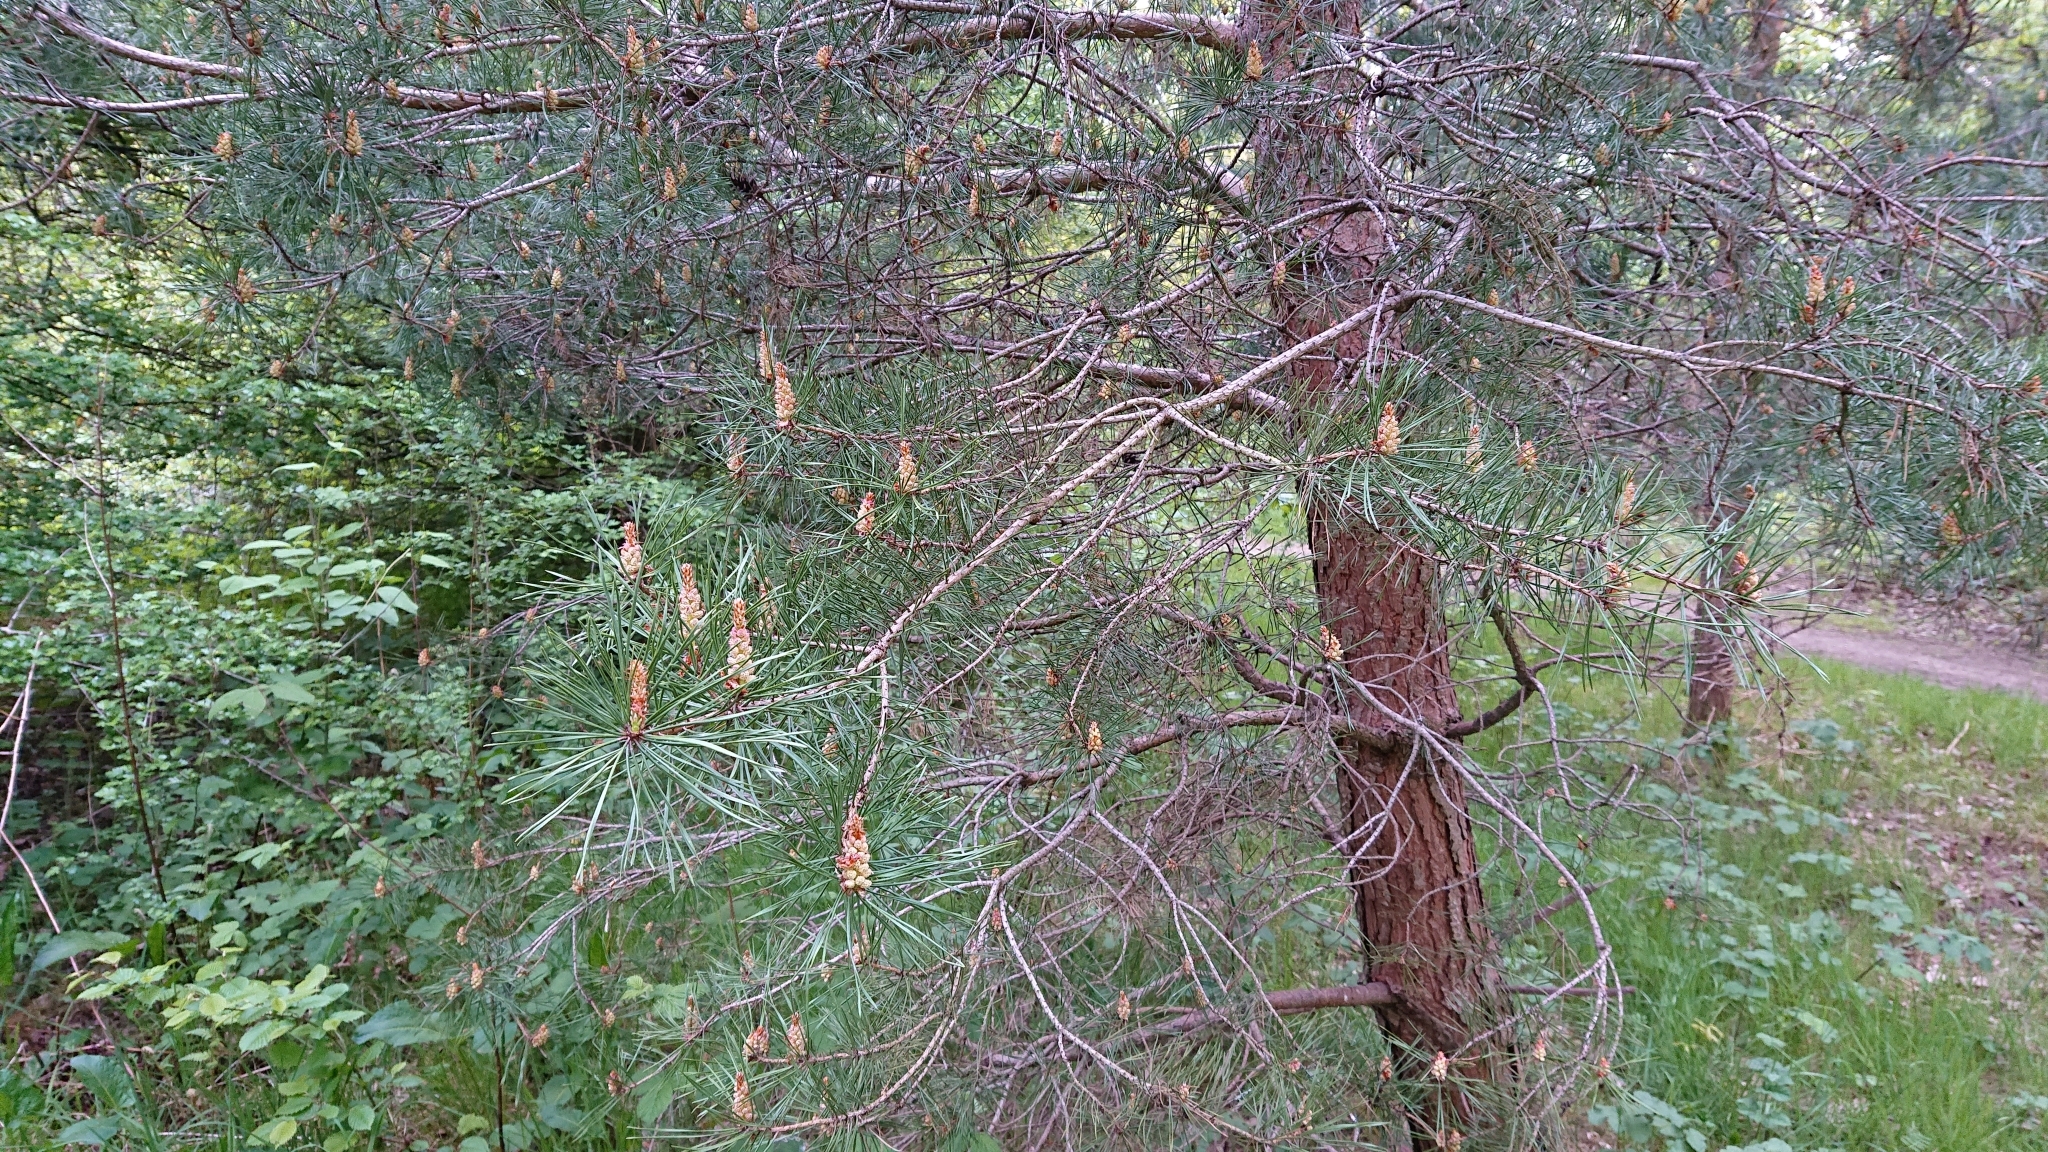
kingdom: Plantae
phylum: Tracheophyta
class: Pinopsida
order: Pinales
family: Pinaceae
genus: Pinus
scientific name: Pinus sylvestris
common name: Scots pine
